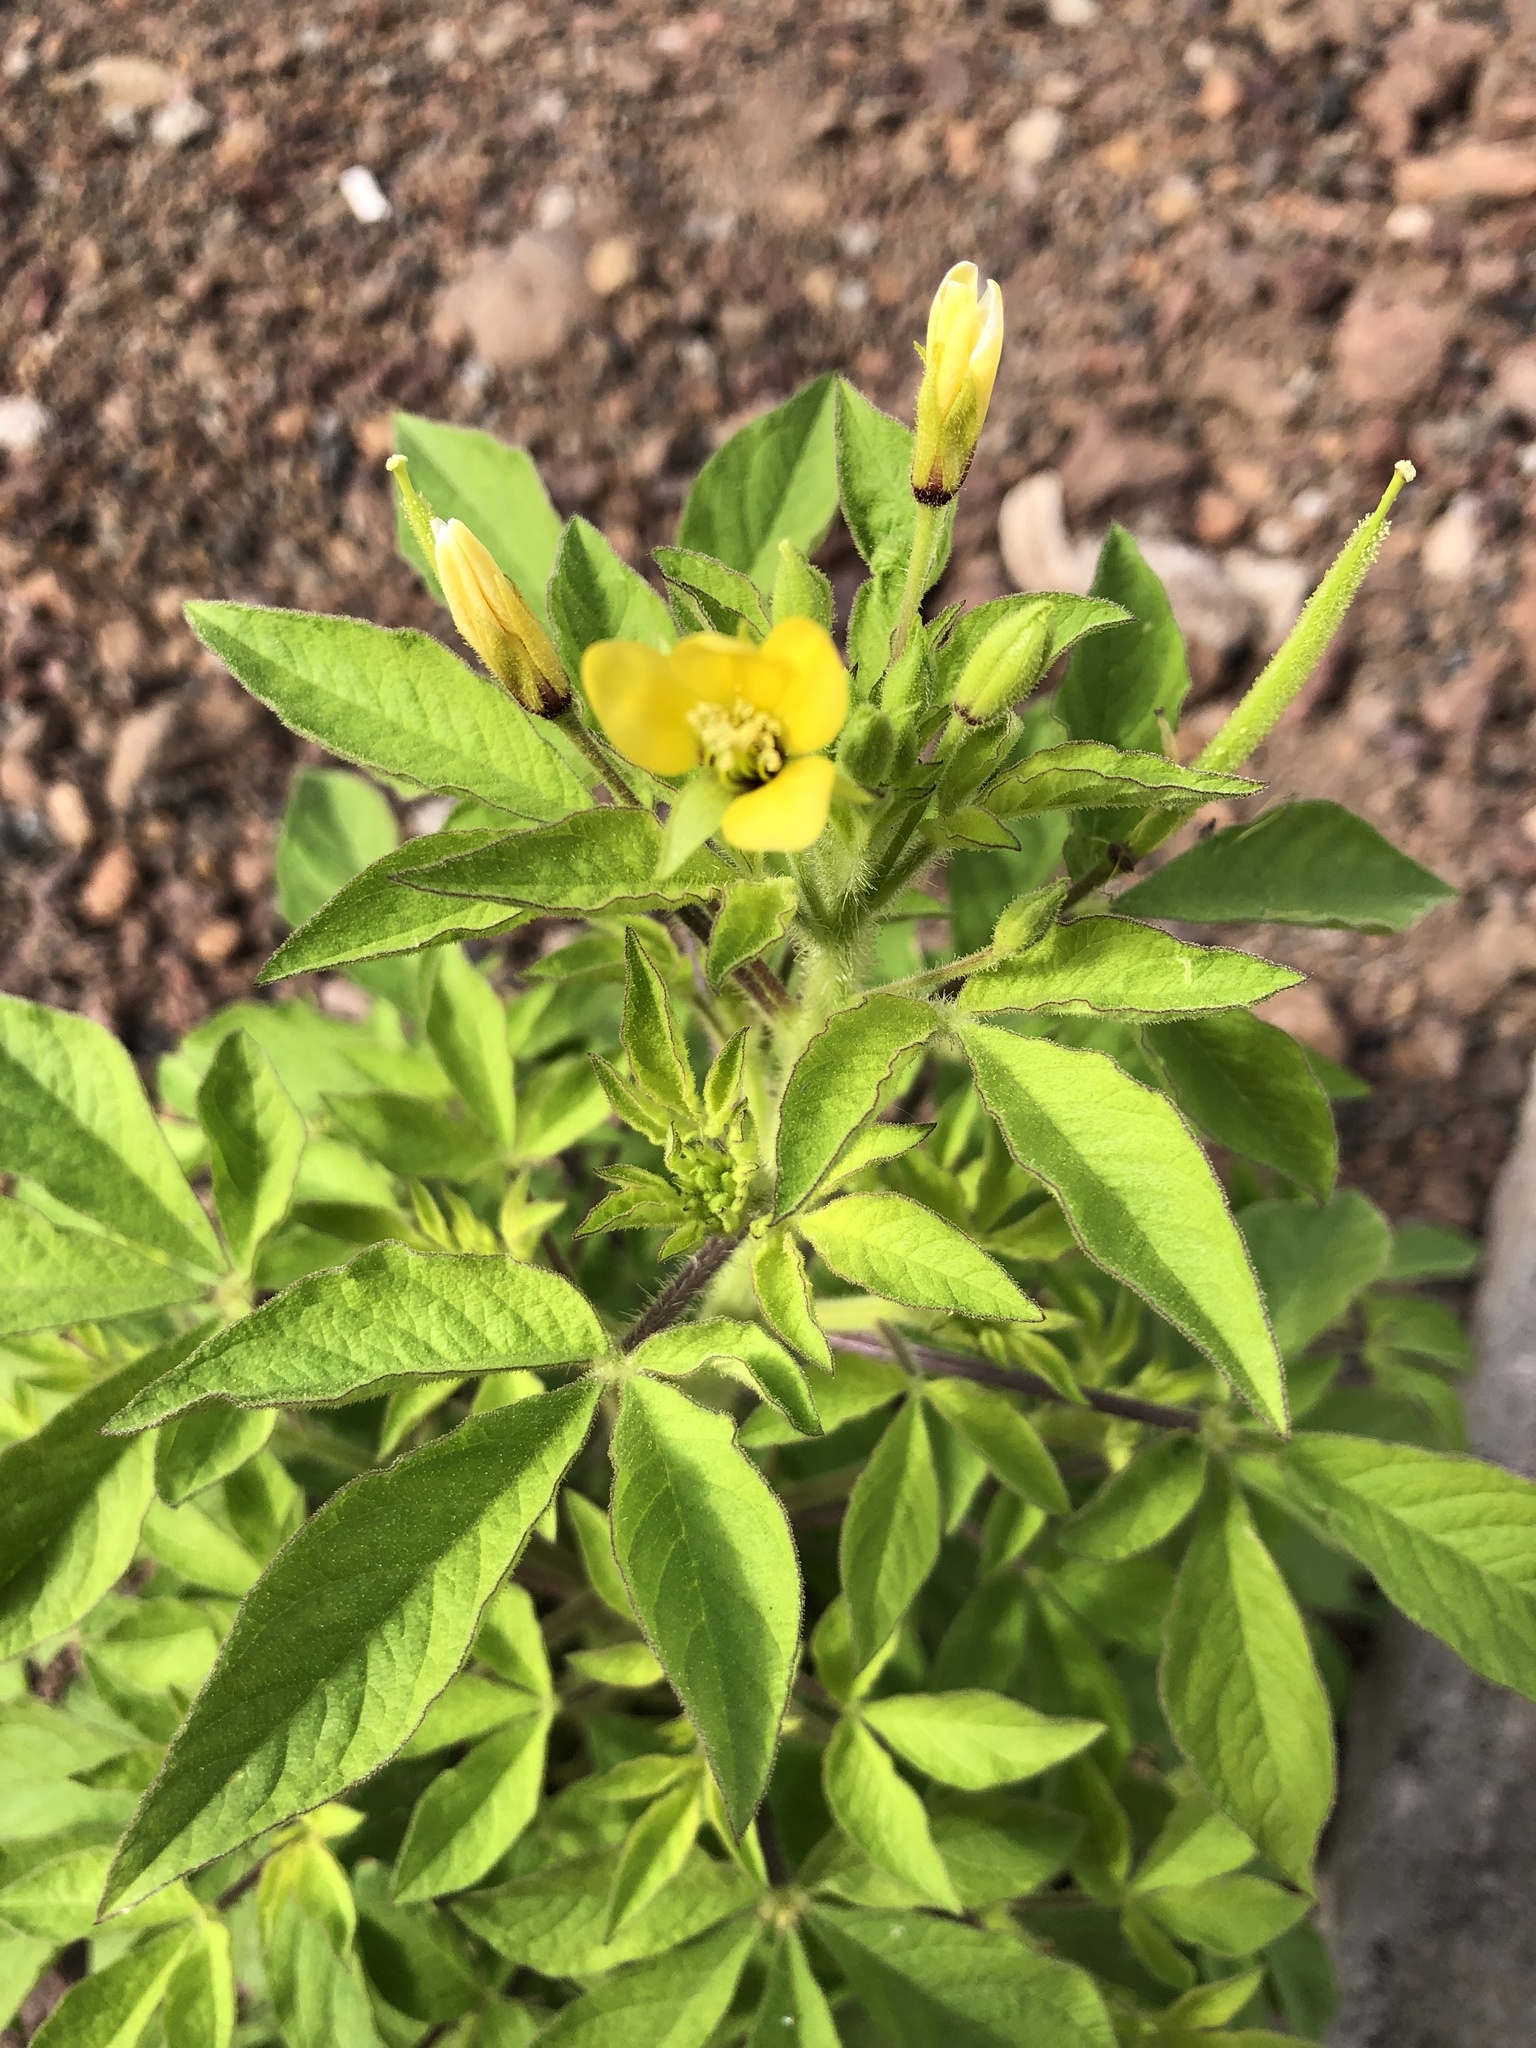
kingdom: Plantae
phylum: Tracheophyta
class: Magnoliopsida
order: Brassicales
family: Cleomaceae
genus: Arivela
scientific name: Arivela viscosa
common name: Asian spiderflower
